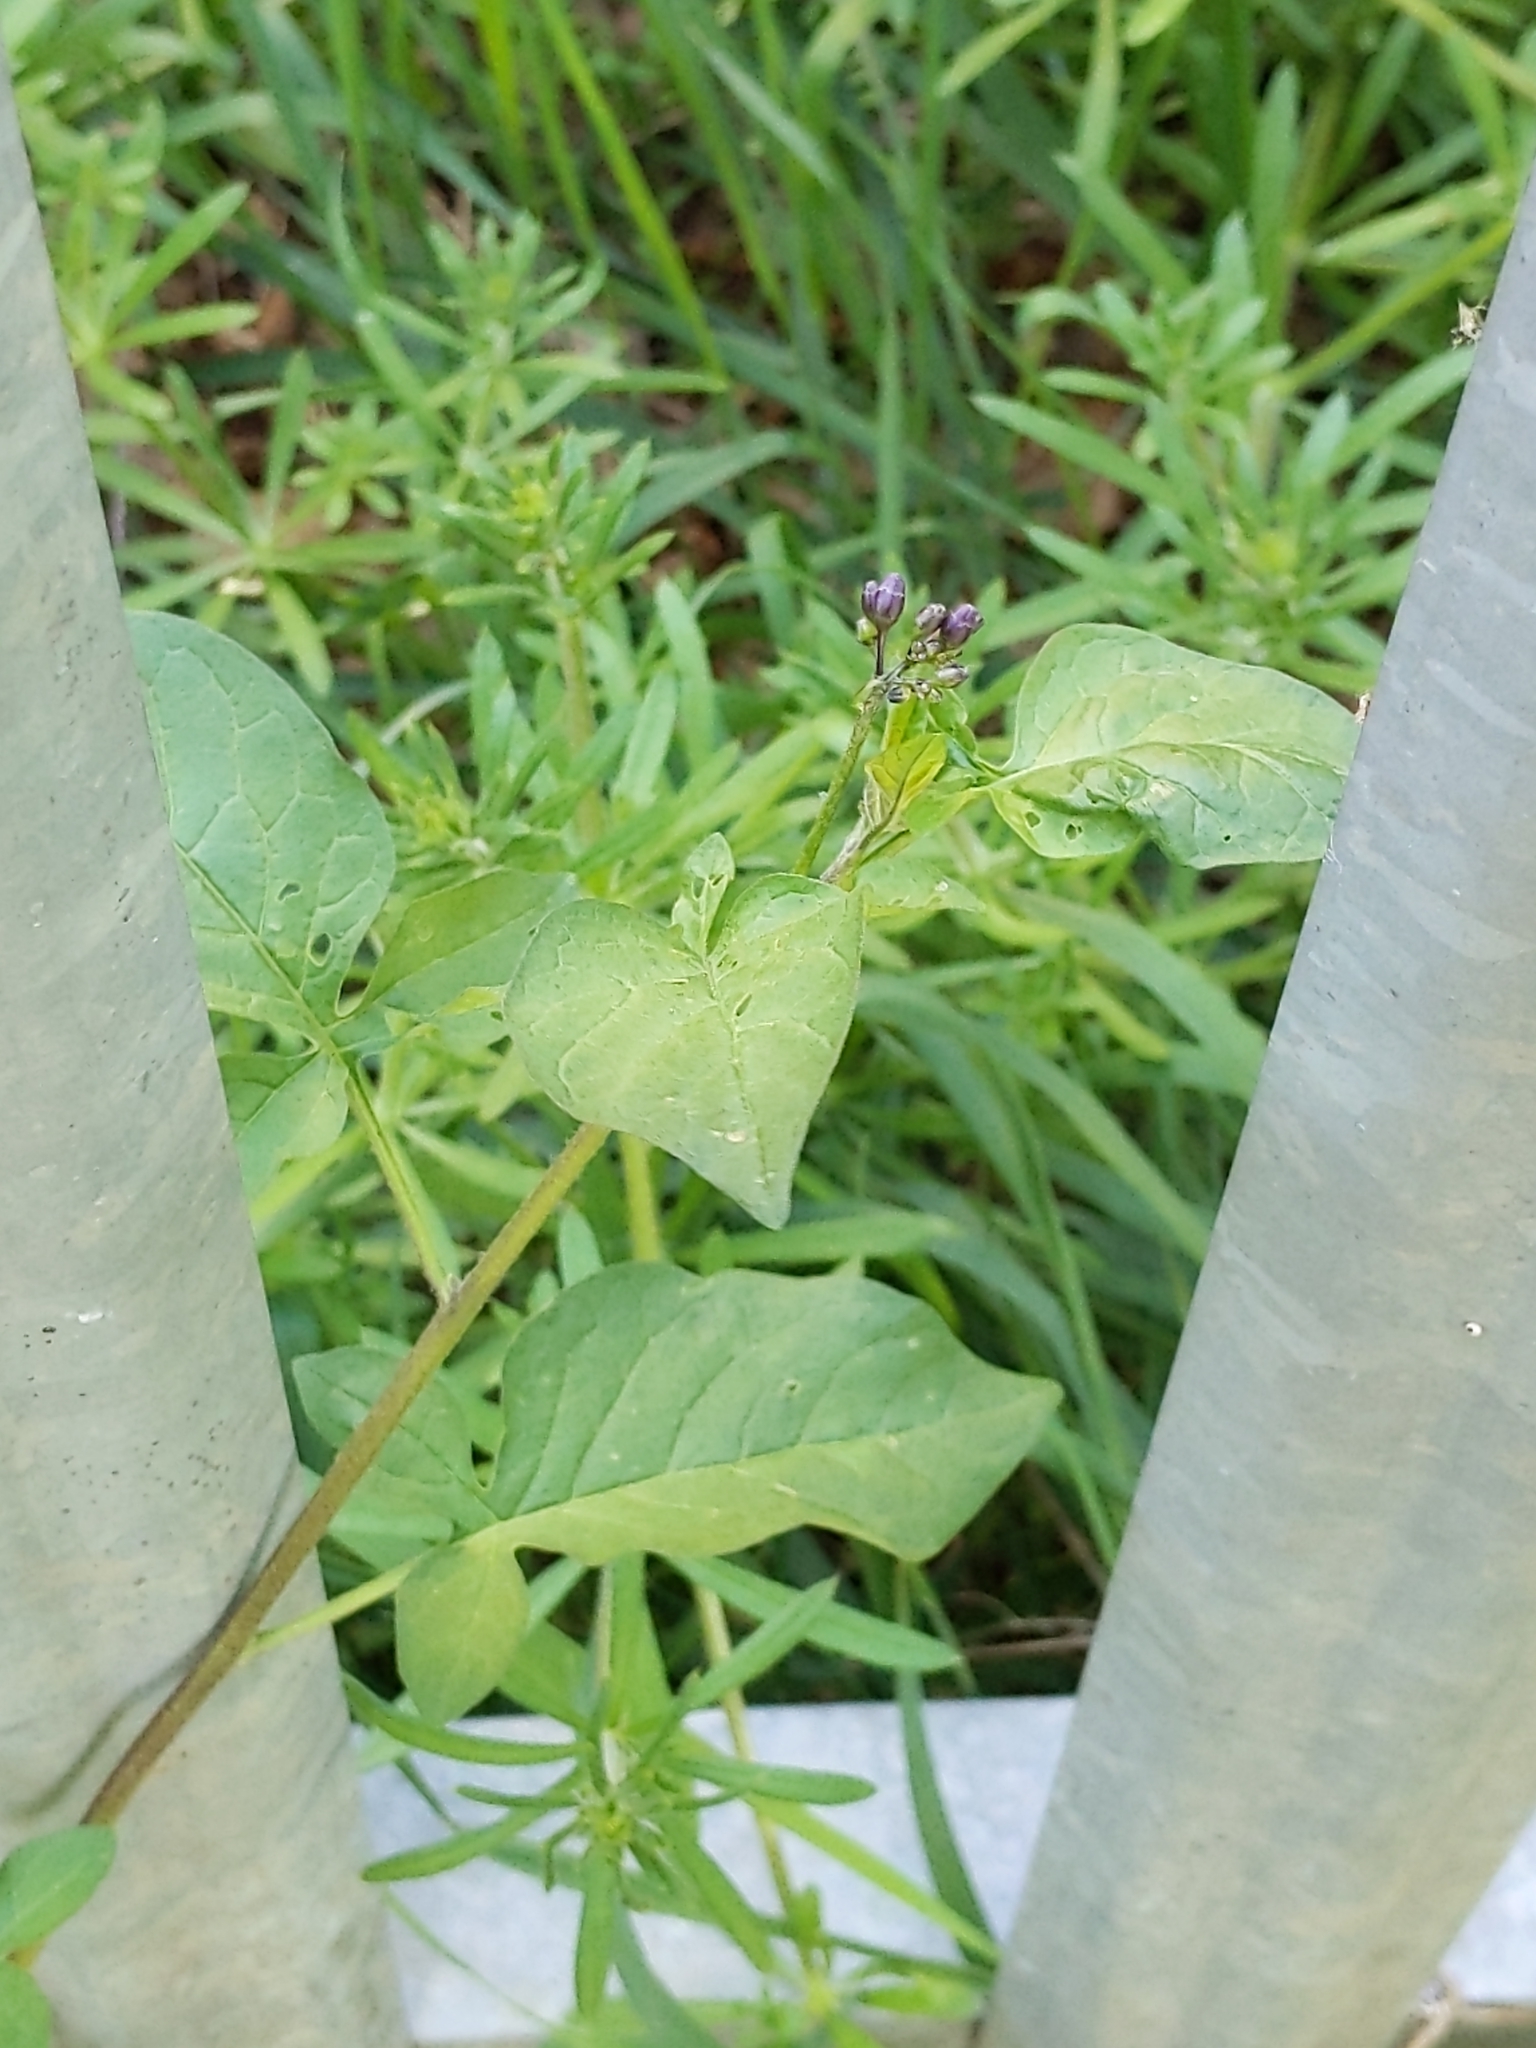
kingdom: Plantae
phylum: Tracheophyta
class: Magnoliopsida
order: Solanales
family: Solanaceae
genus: Solanum
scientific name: Solanum dulcamara
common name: Climbing nightshade
